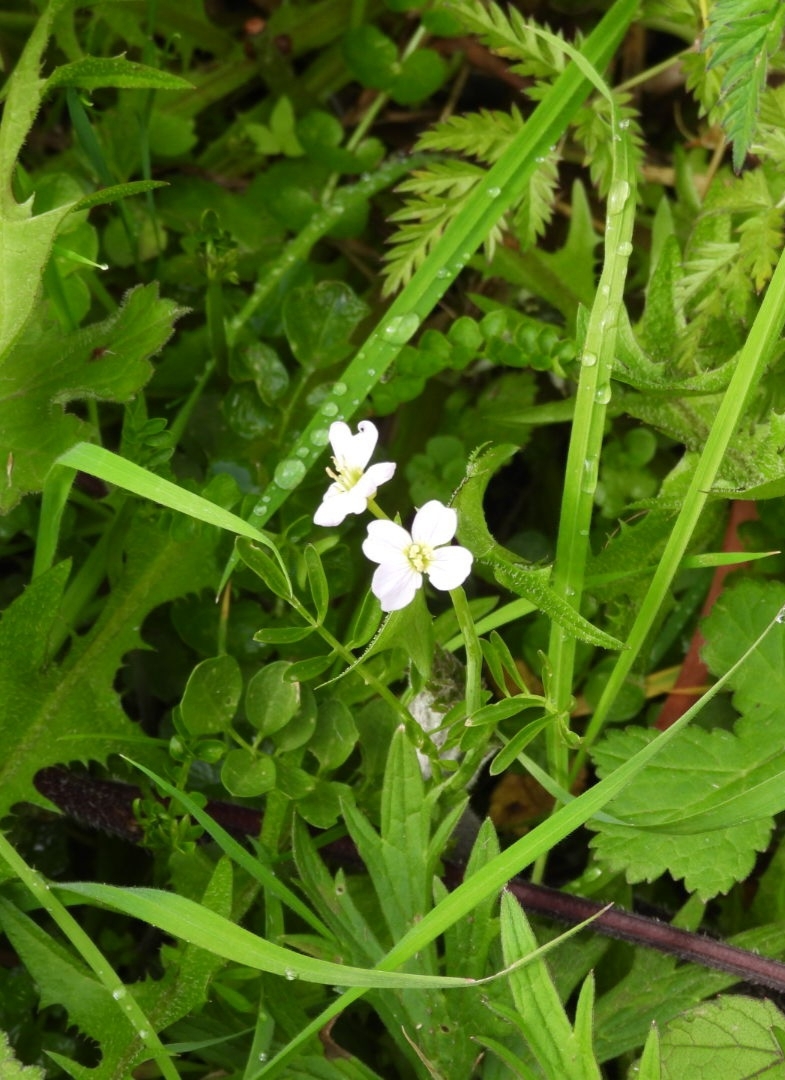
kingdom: Plantae
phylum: Tracheophyta
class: Magnoliopsida
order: Brassicales
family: Brassicaceae
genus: Cardamine
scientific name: Cardamine pratensis
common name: Cuckoo flower
